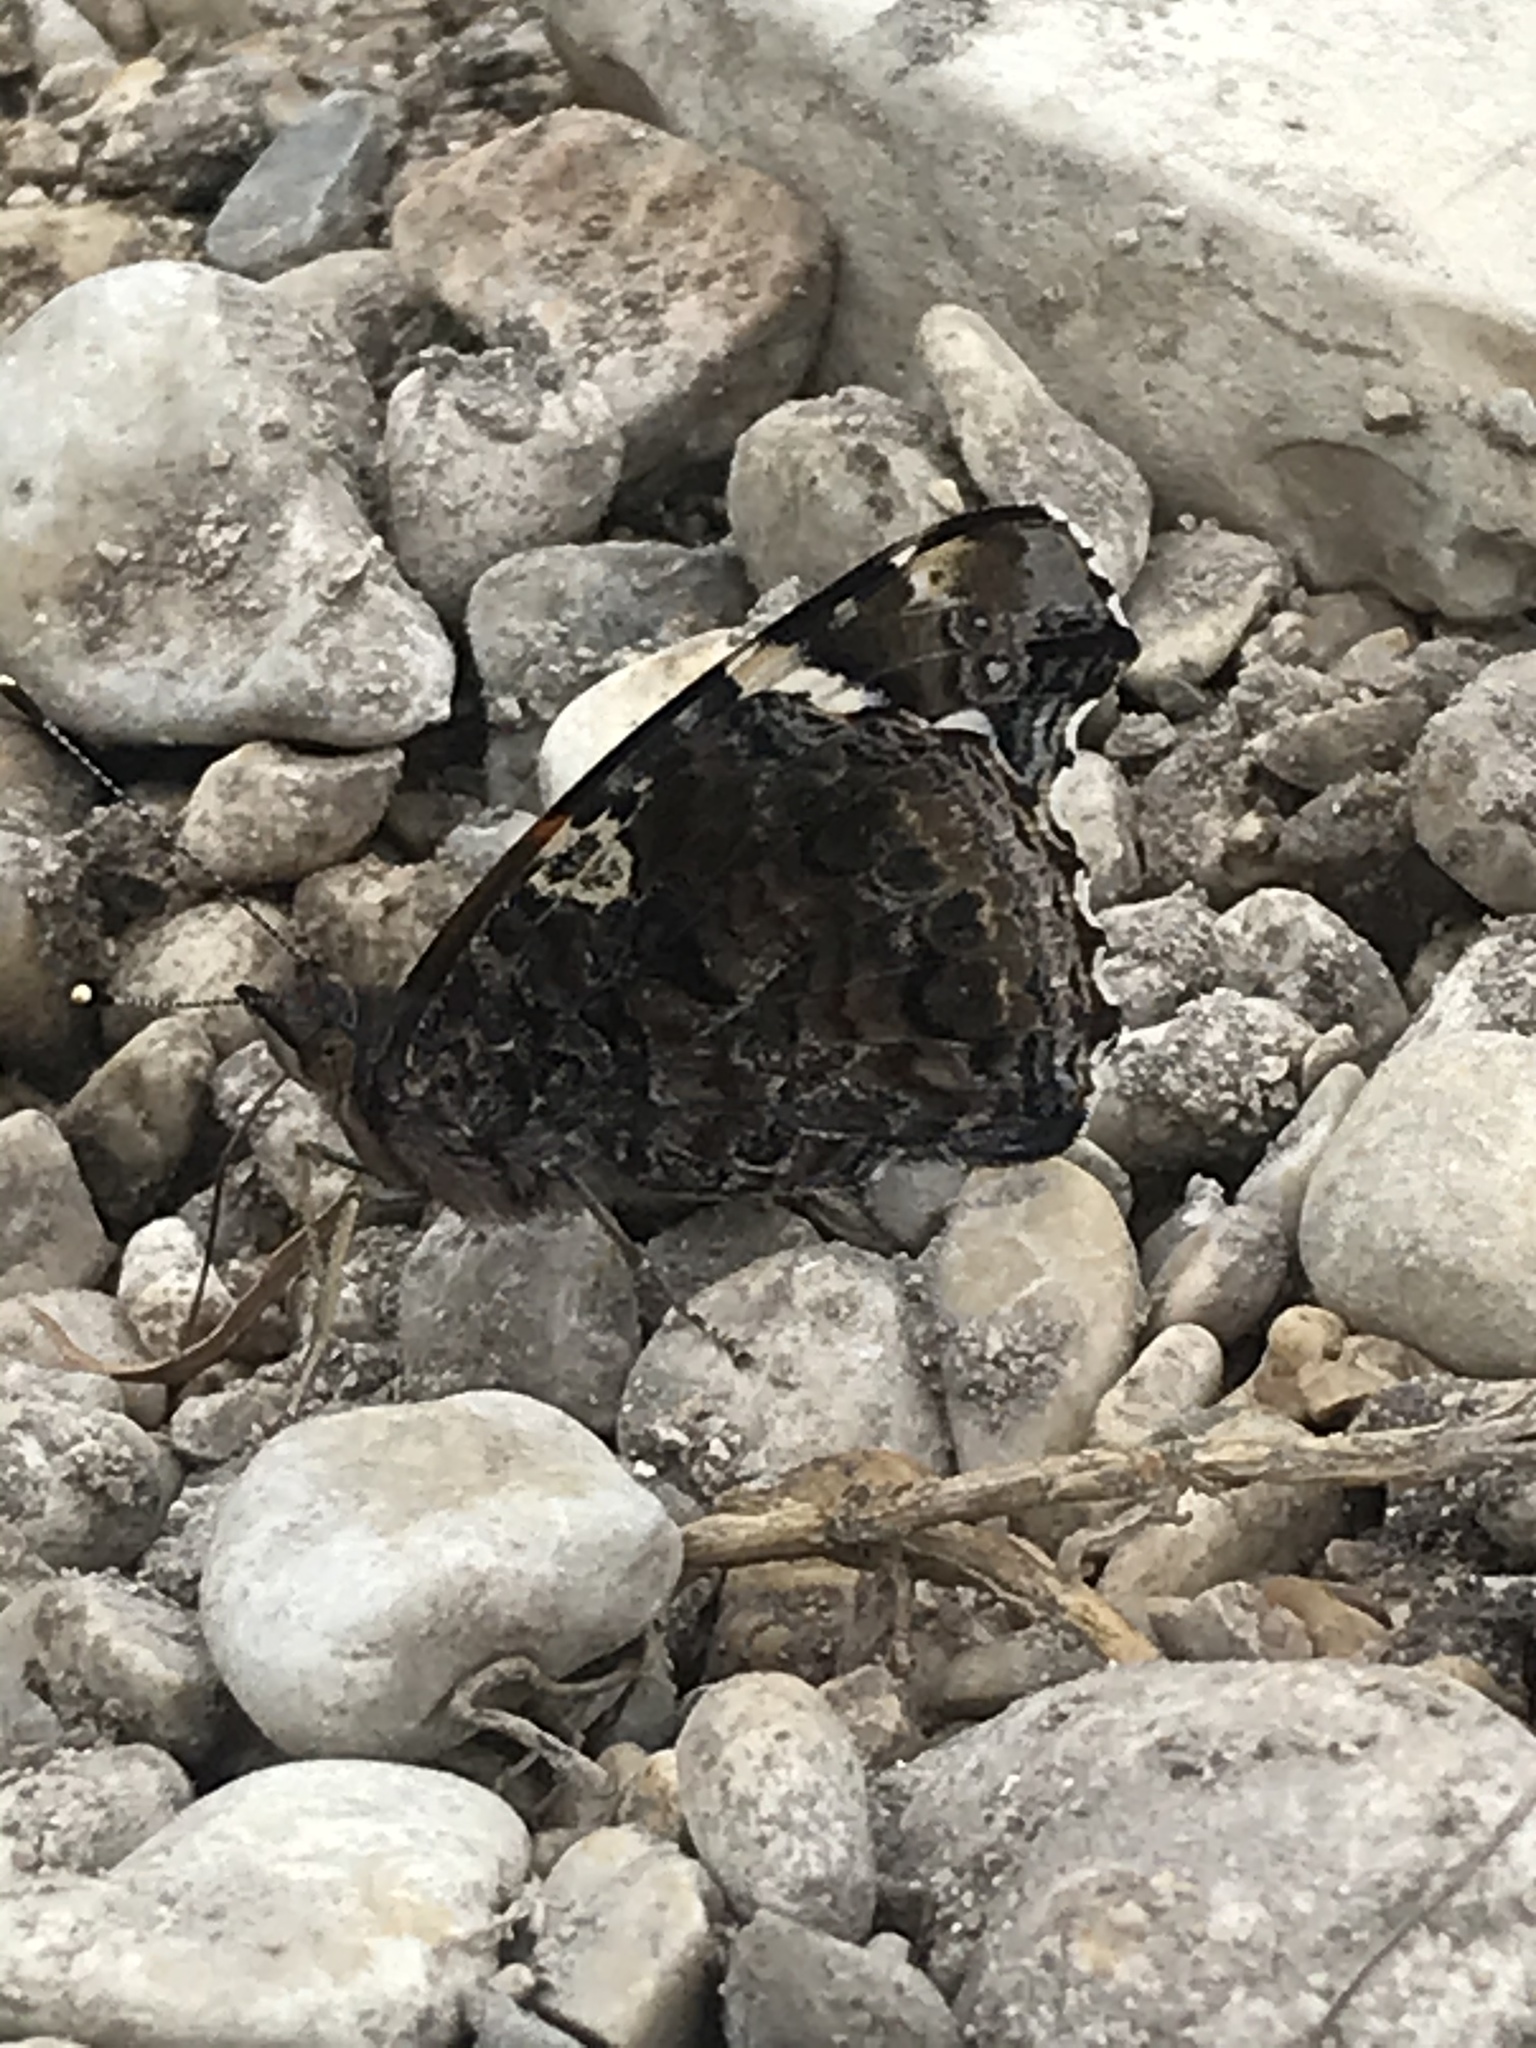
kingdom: Animalia
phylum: Arthropoda
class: Insecta
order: Lepidoptera
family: Nymphalidae
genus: Vanessa
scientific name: Vanessa atalanta
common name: Red admiral
